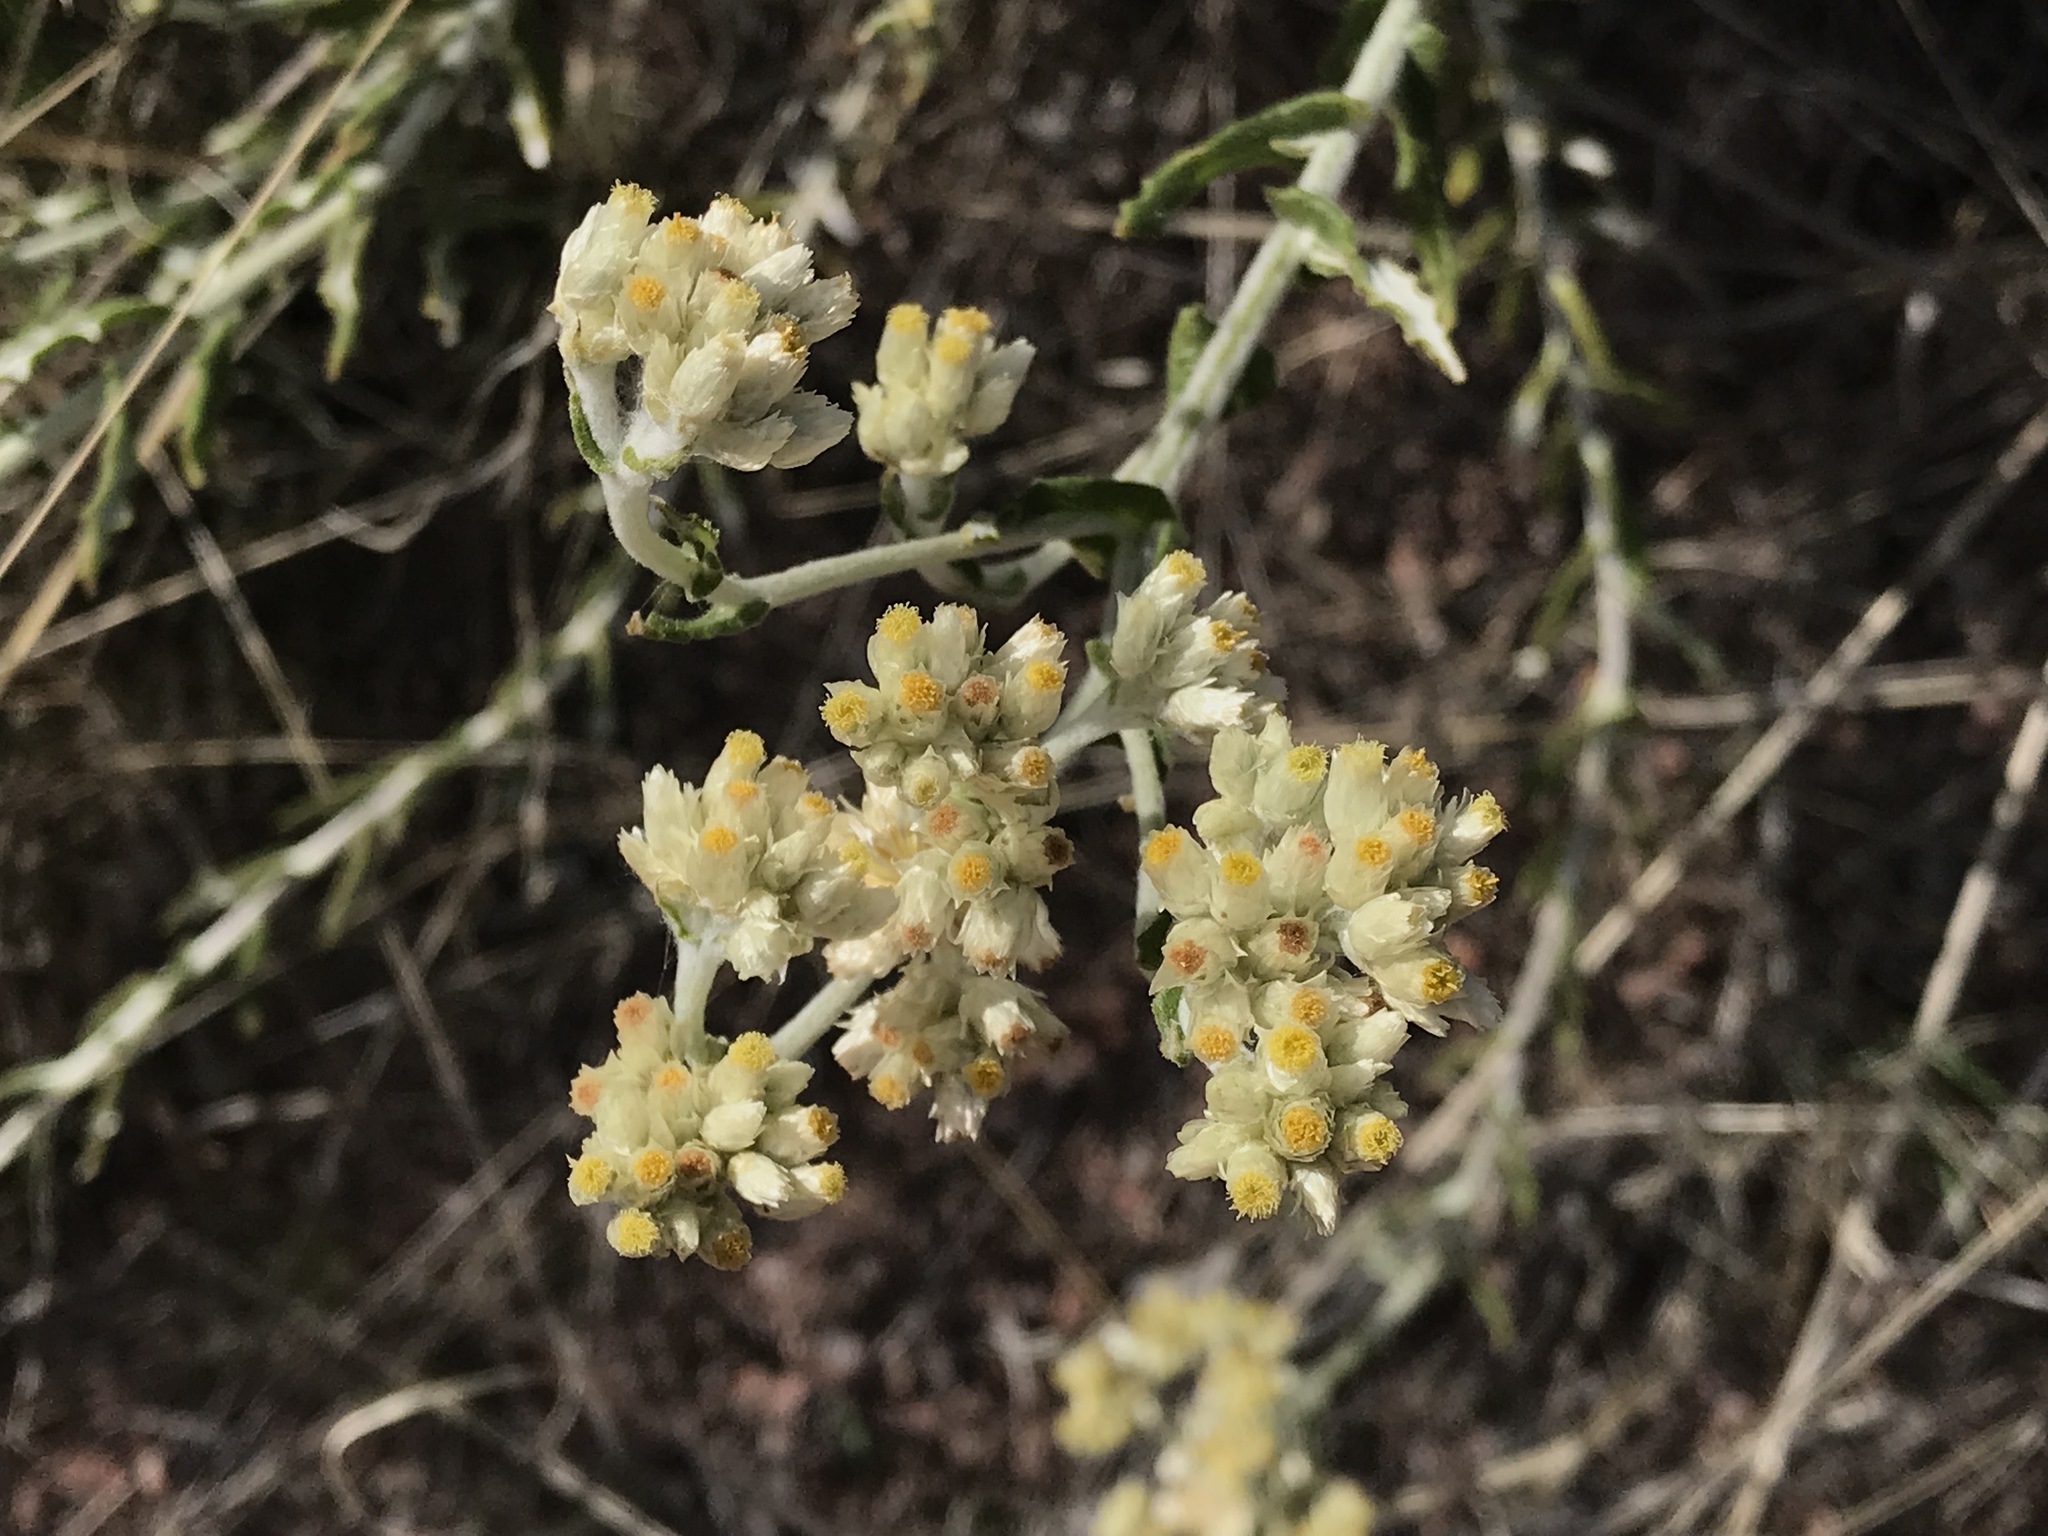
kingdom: Plantae
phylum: Tracheophyta
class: Magnoliopsida
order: Asterales
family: Asteraceae
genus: Pseudognaphalium
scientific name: Pseudognaphalium californicum
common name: California rabbit-tobacco
